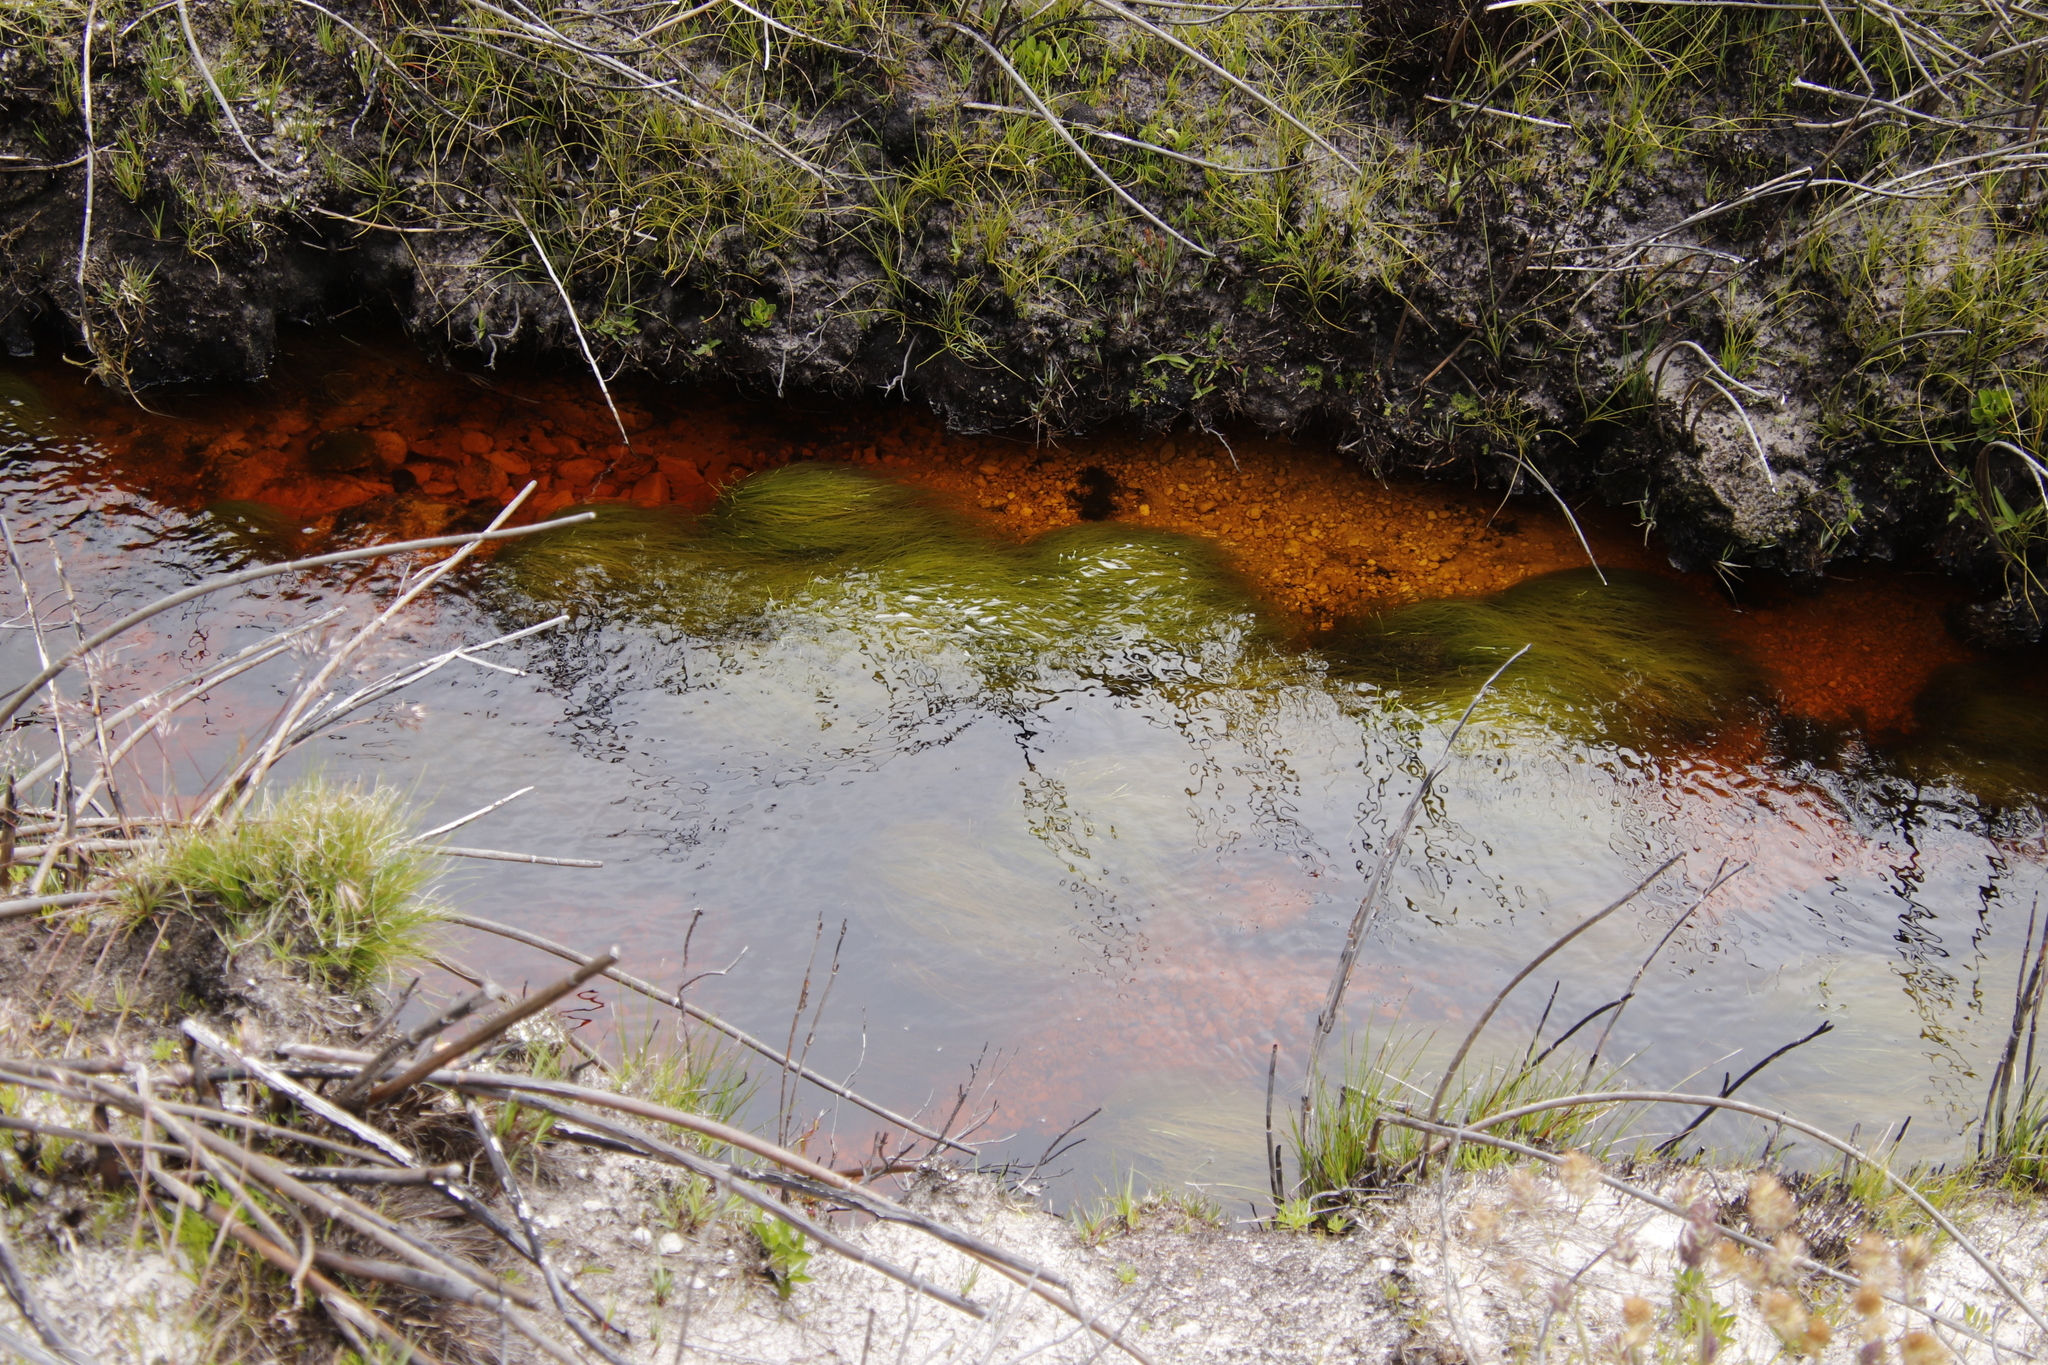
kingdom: Plantae
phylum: Tracheophyta
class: Liliopsida
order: Poales
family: Cyperaceae
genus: Isolepis
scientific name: Isolepis digitata
